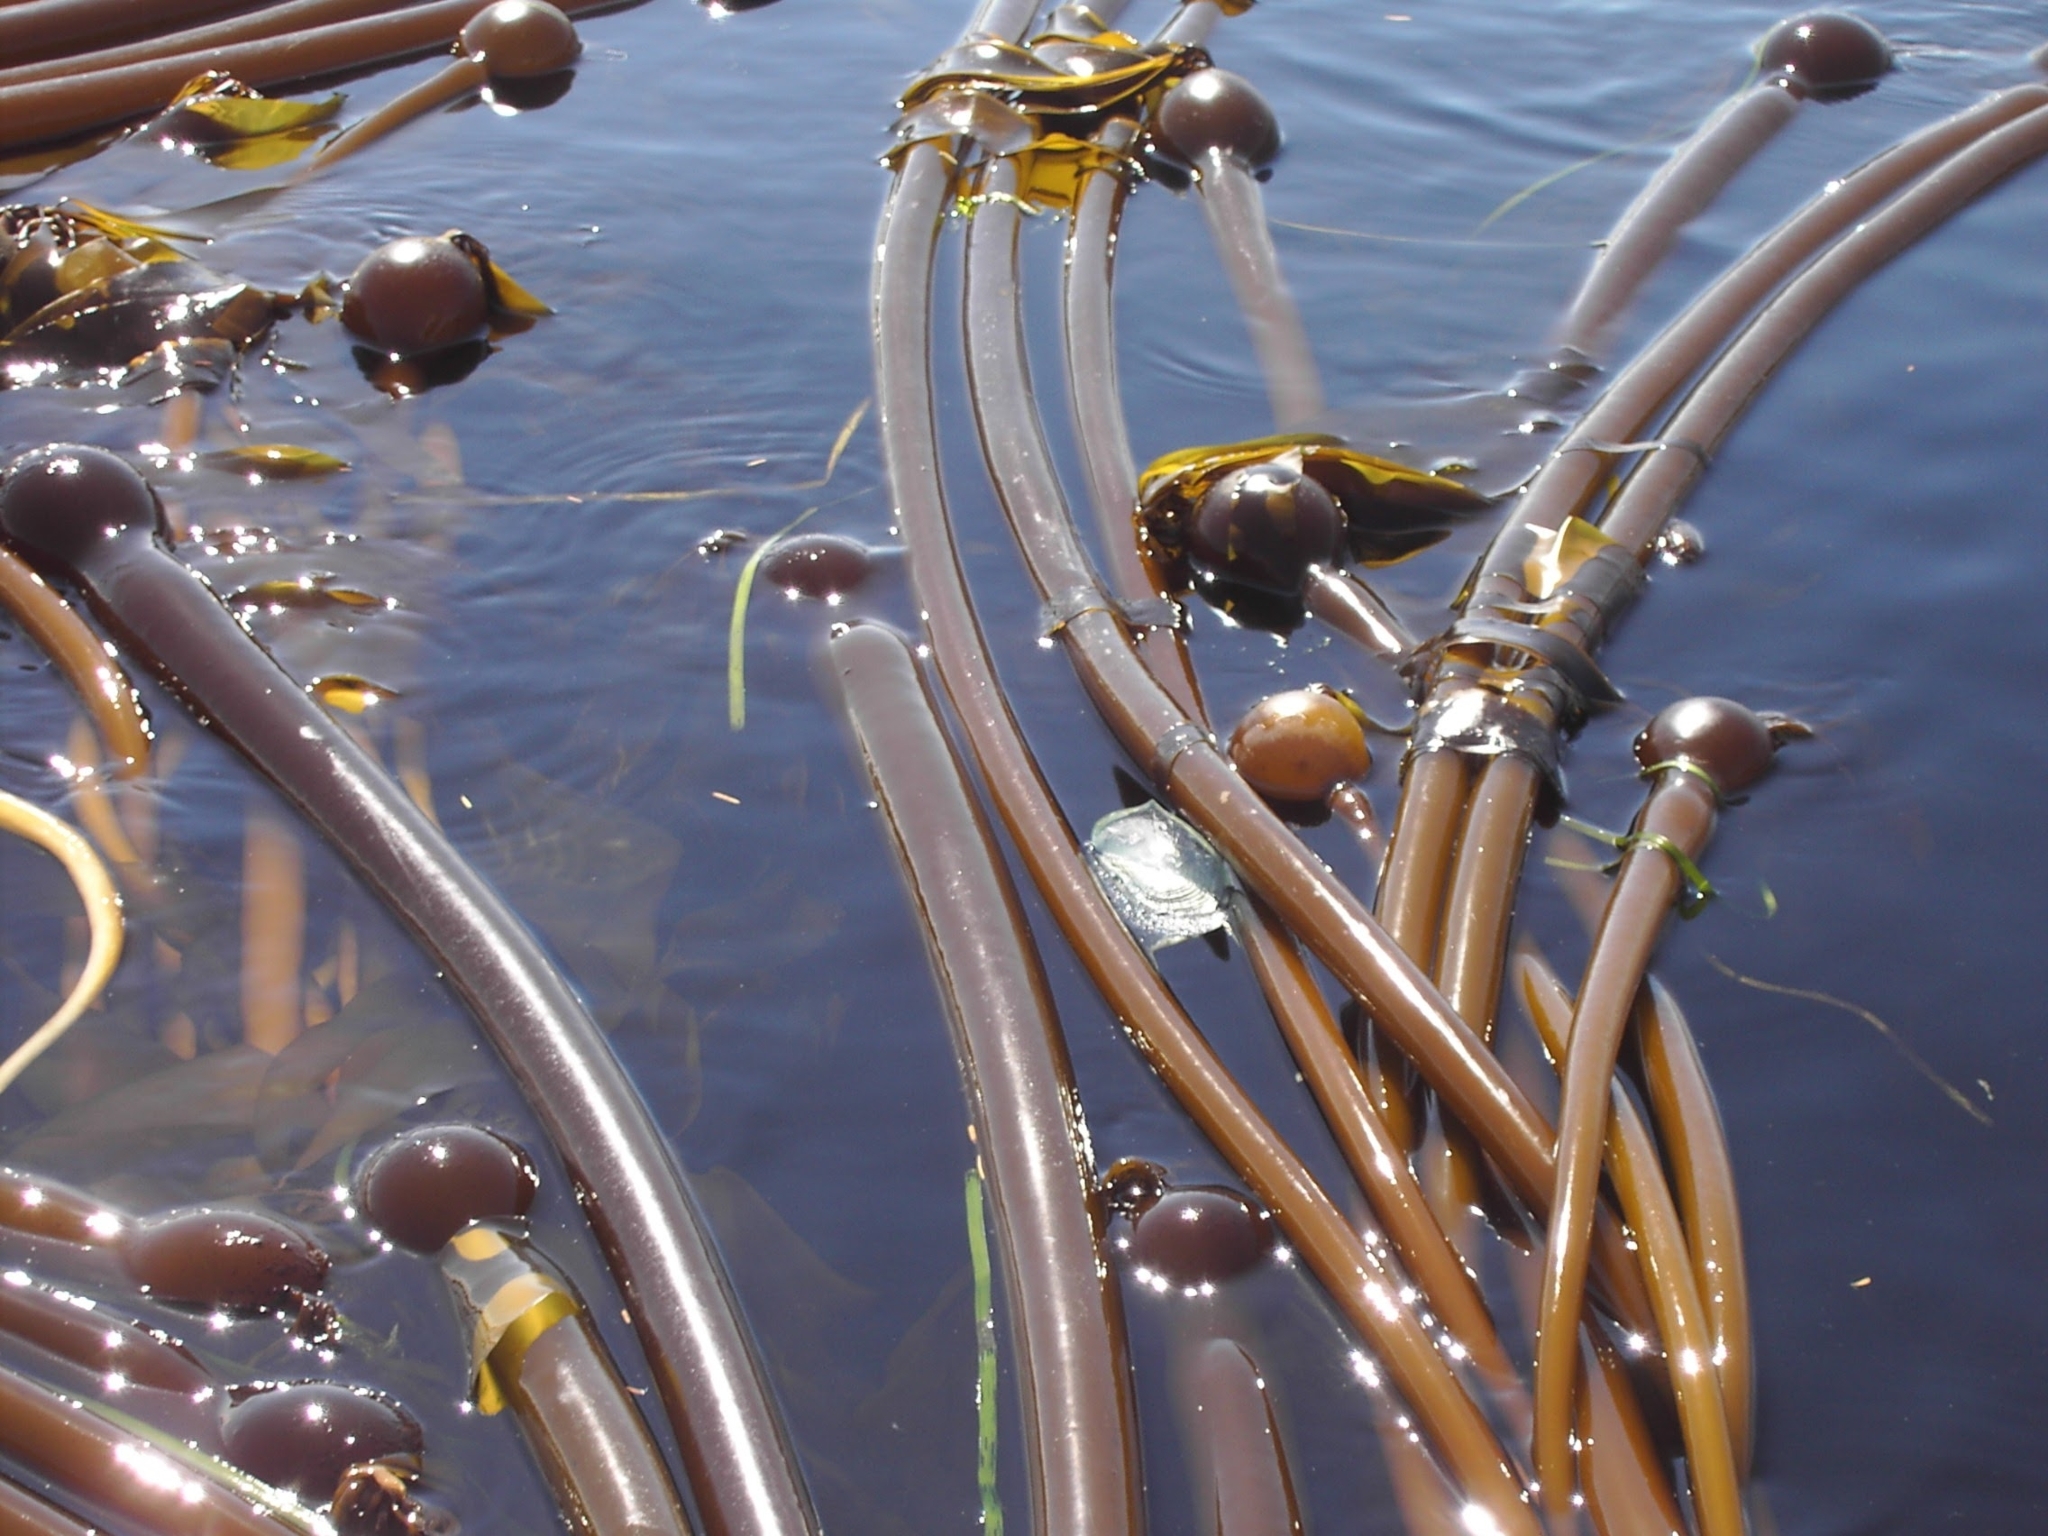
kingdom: Animalia
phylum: Cnidaria
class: Hydrozoa
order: Anthoathecata
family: Porpitidae
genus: Velella
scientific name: Velella velella
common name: By-the-wind-sailor
